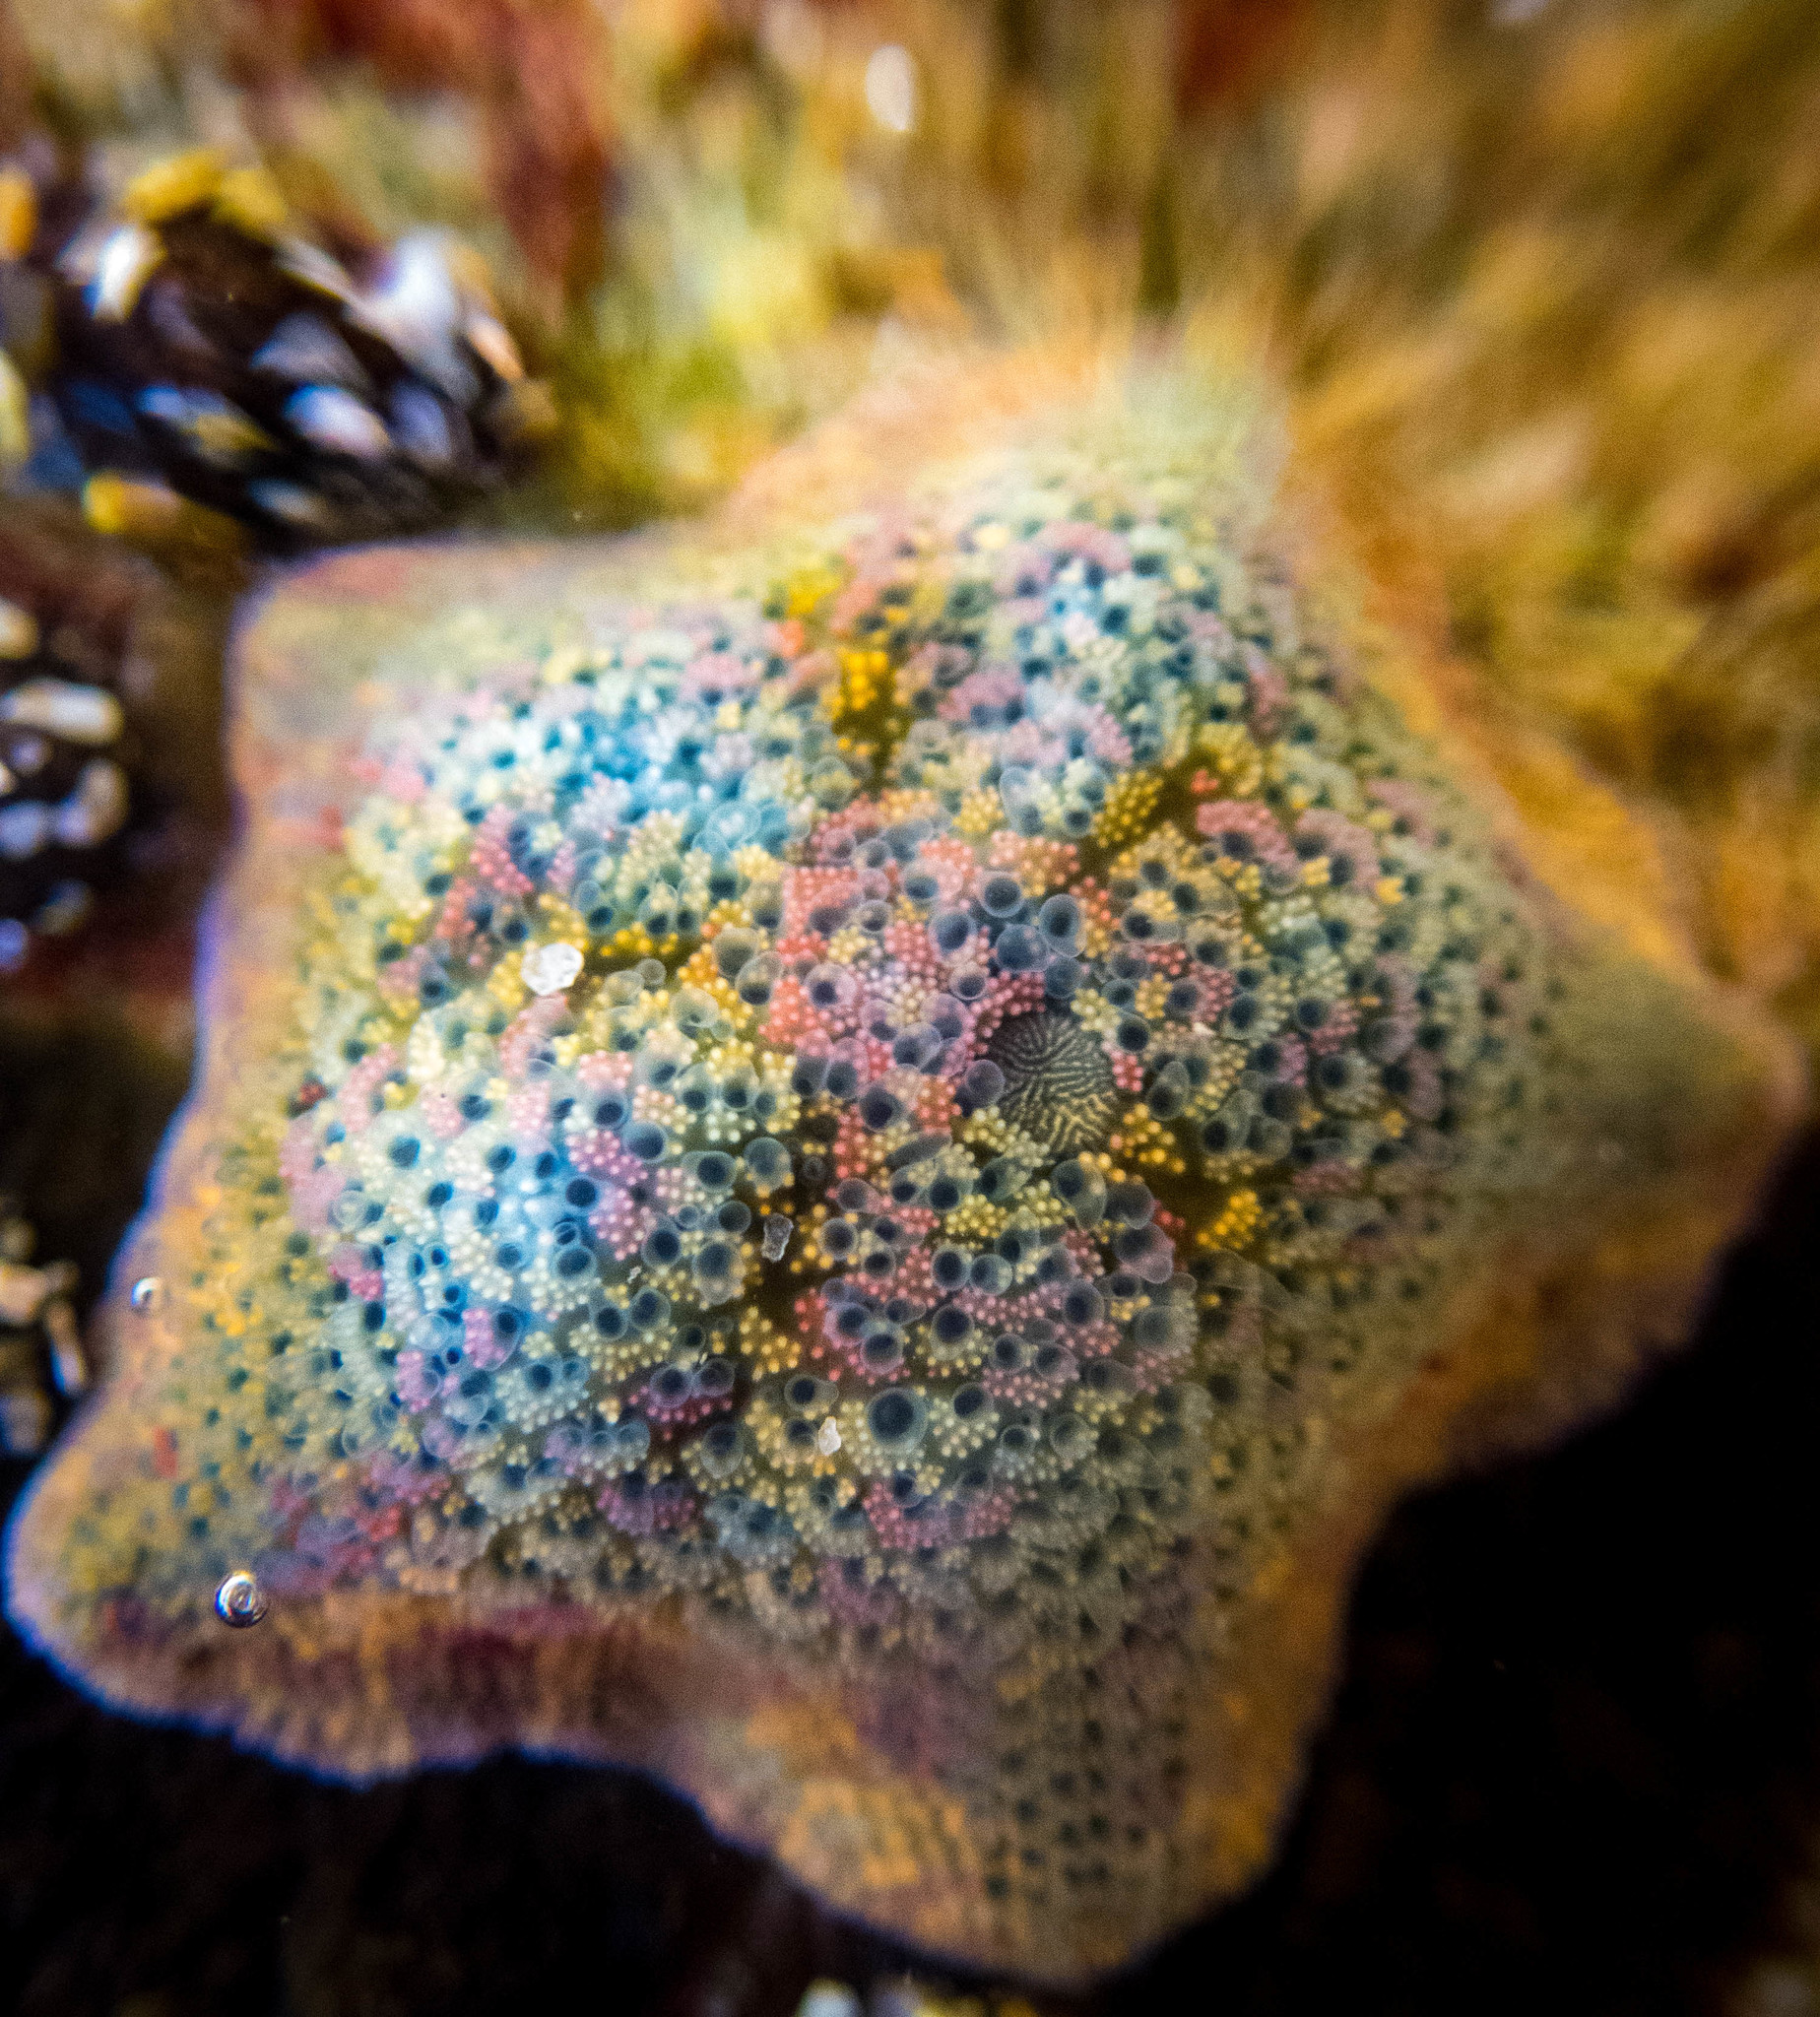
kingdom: Animalia
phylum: Echinodermata
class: Asteroidea
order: Valvatida
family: Asterinidae
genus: Parvulastra
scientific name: Parvulastra exigua
